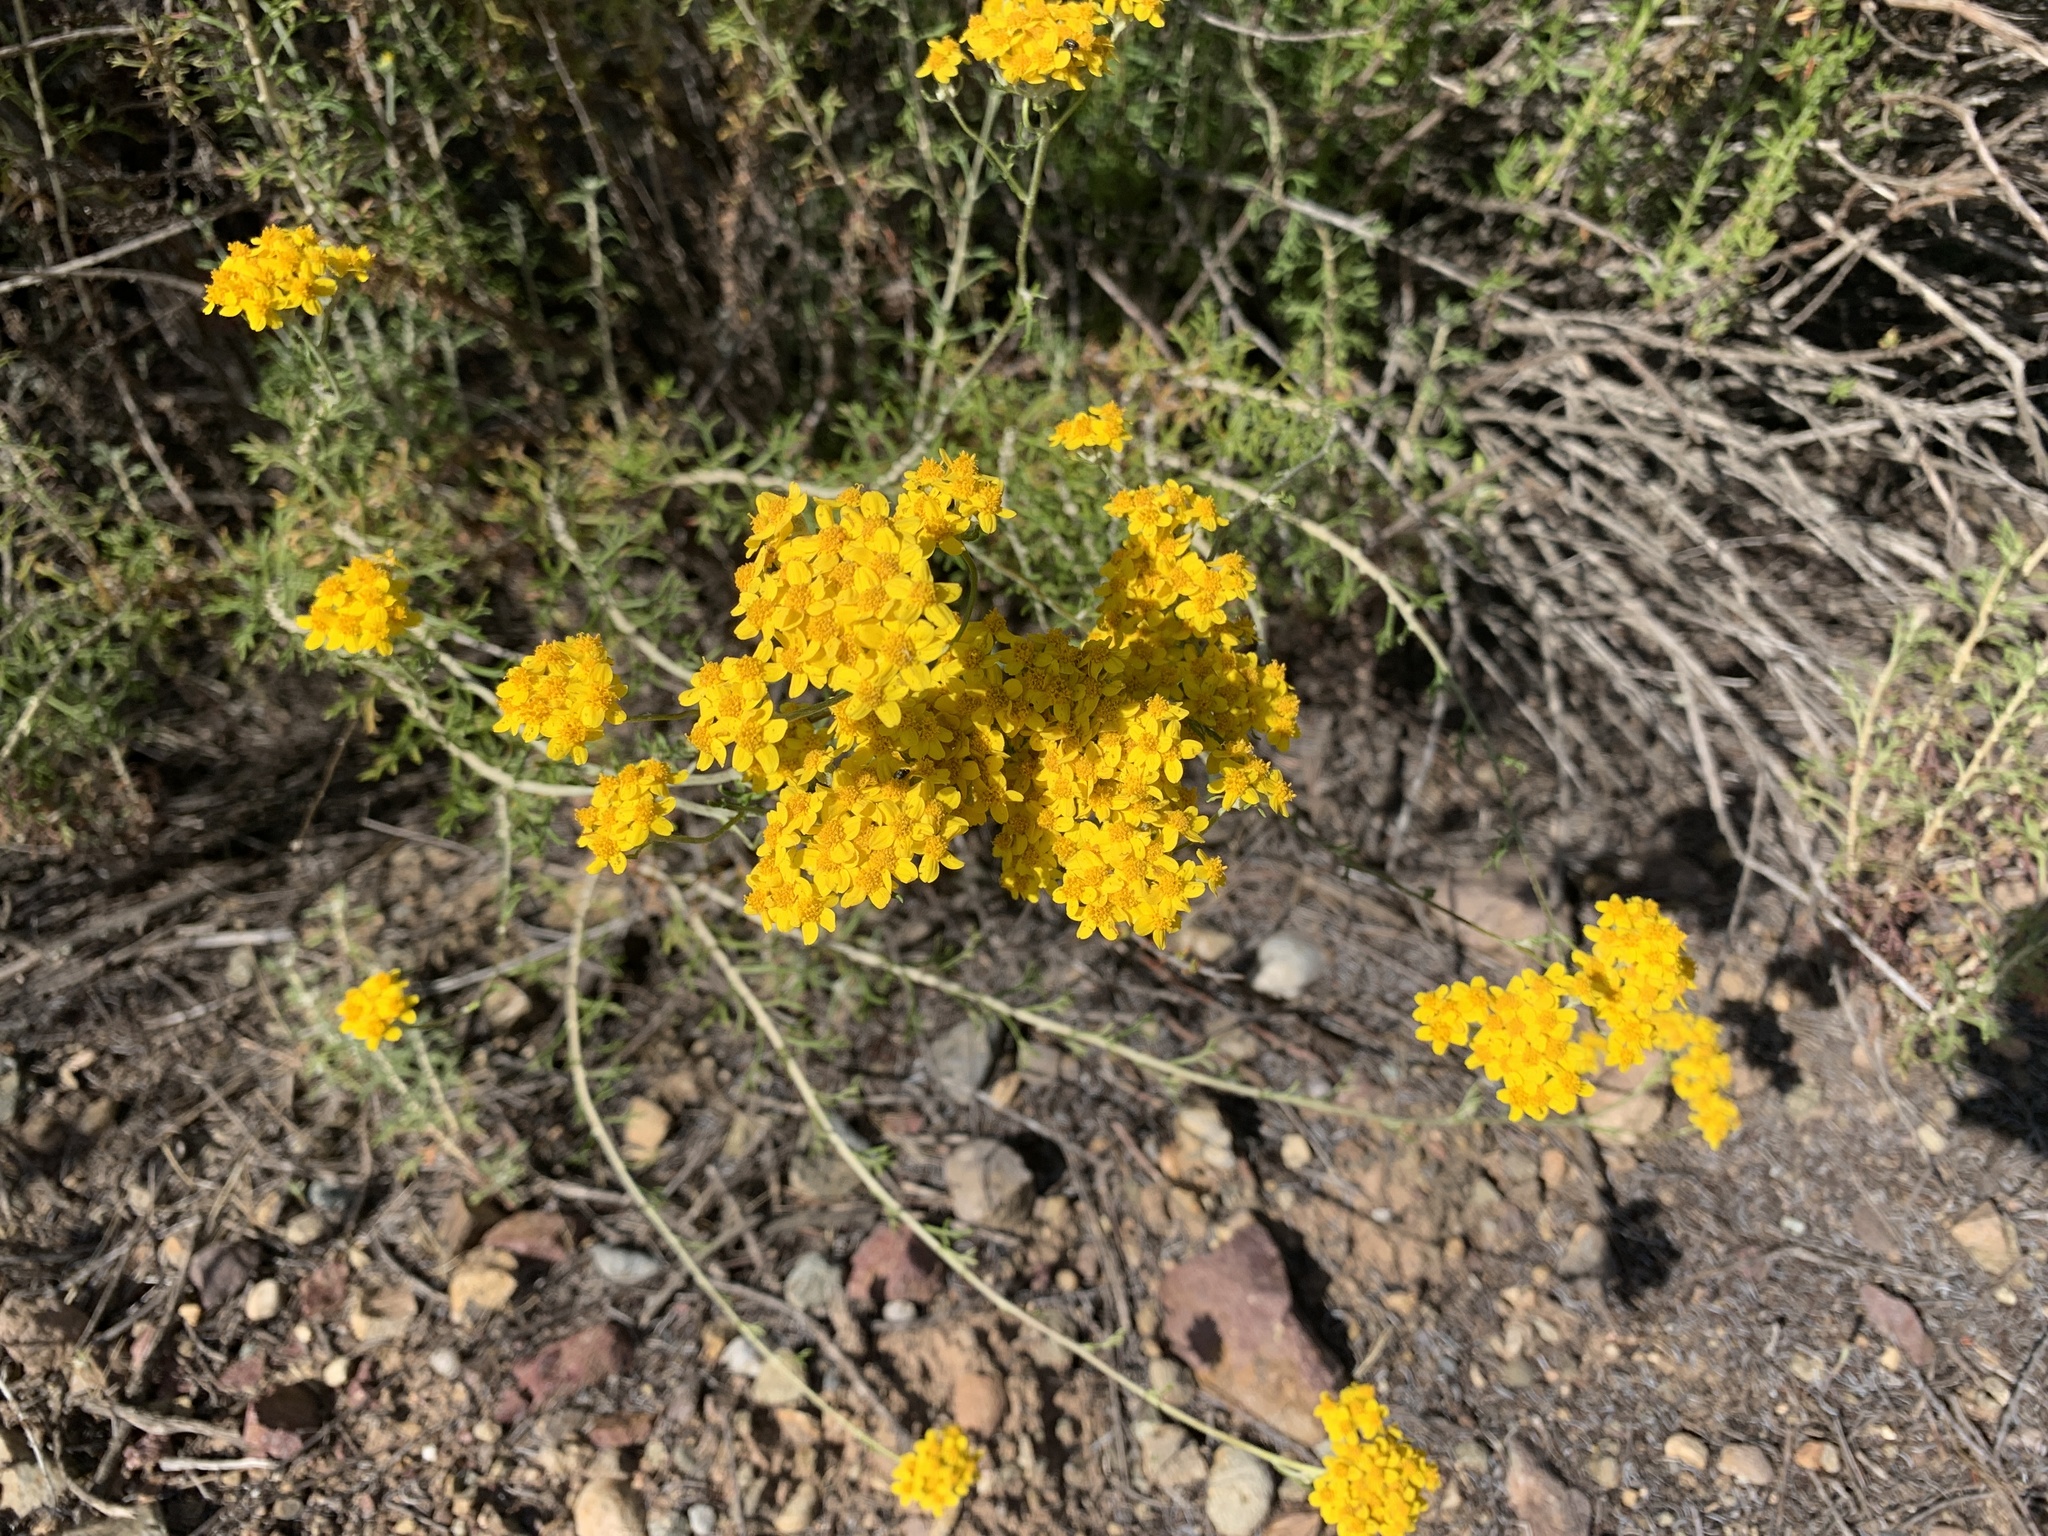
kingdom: Plantae
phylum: Tracheophyta
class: Magnoliopsida
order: Asterales
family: Asteraceae
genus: Eriophyllum
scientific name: Eriophyllum confertiflorum
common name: Golden-yarrow
